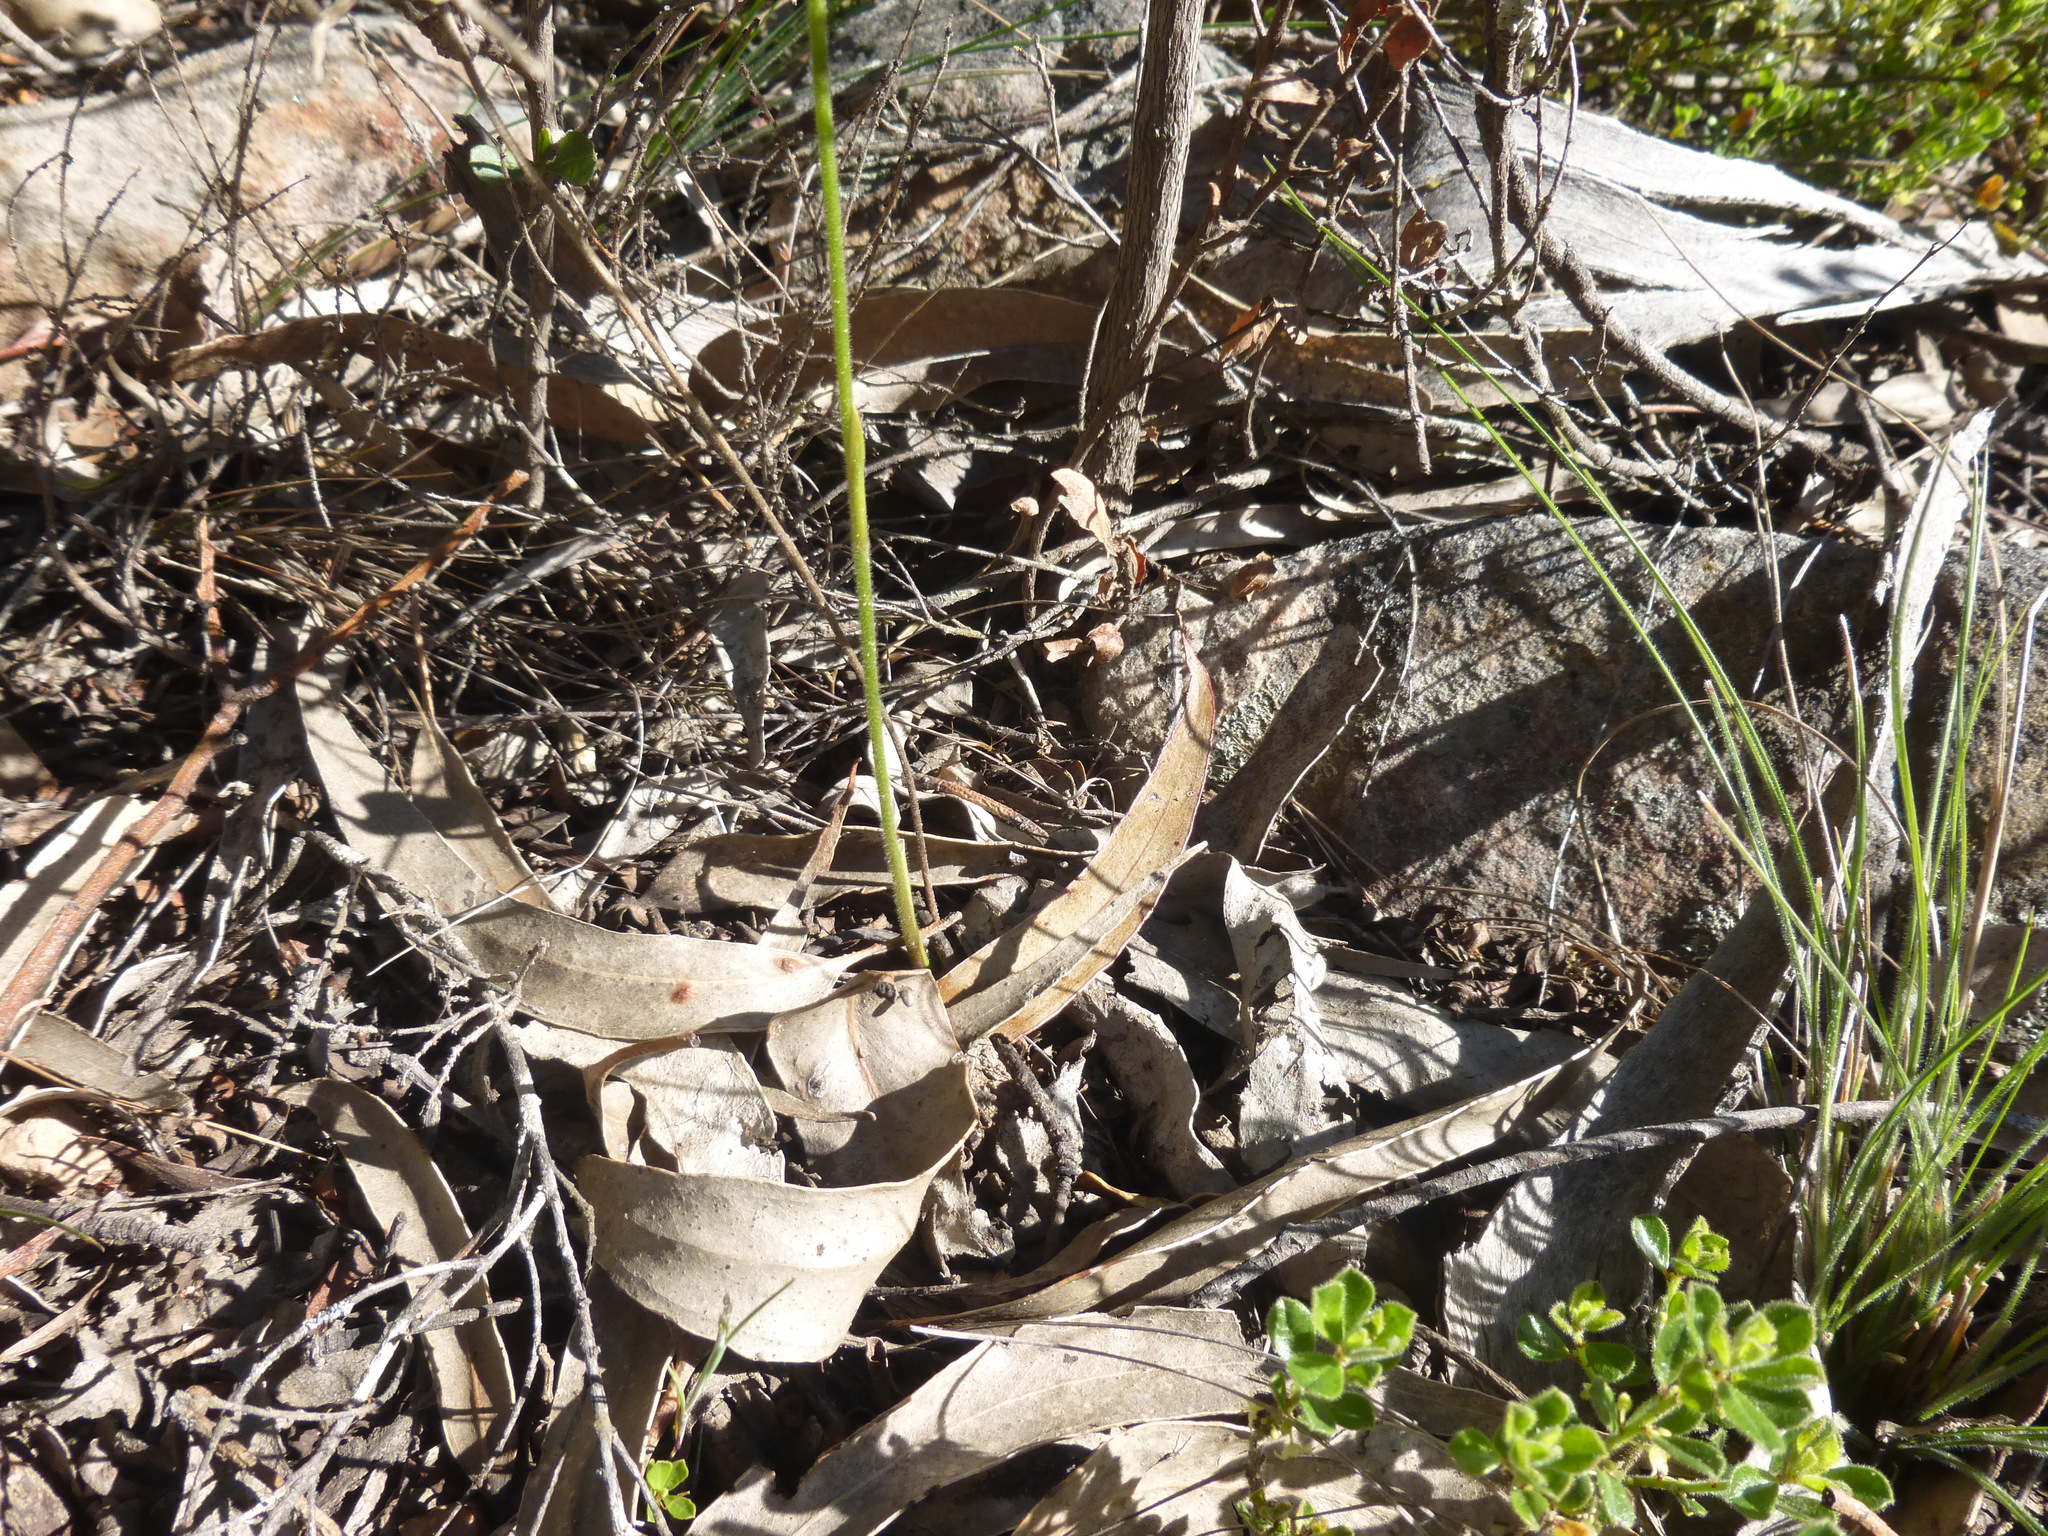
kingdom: Plantae
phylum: Tracheophyta
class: Liliopsida
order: Asparagales
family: Orchidaceae
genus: Caladenia
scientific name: Caladenia moschata
